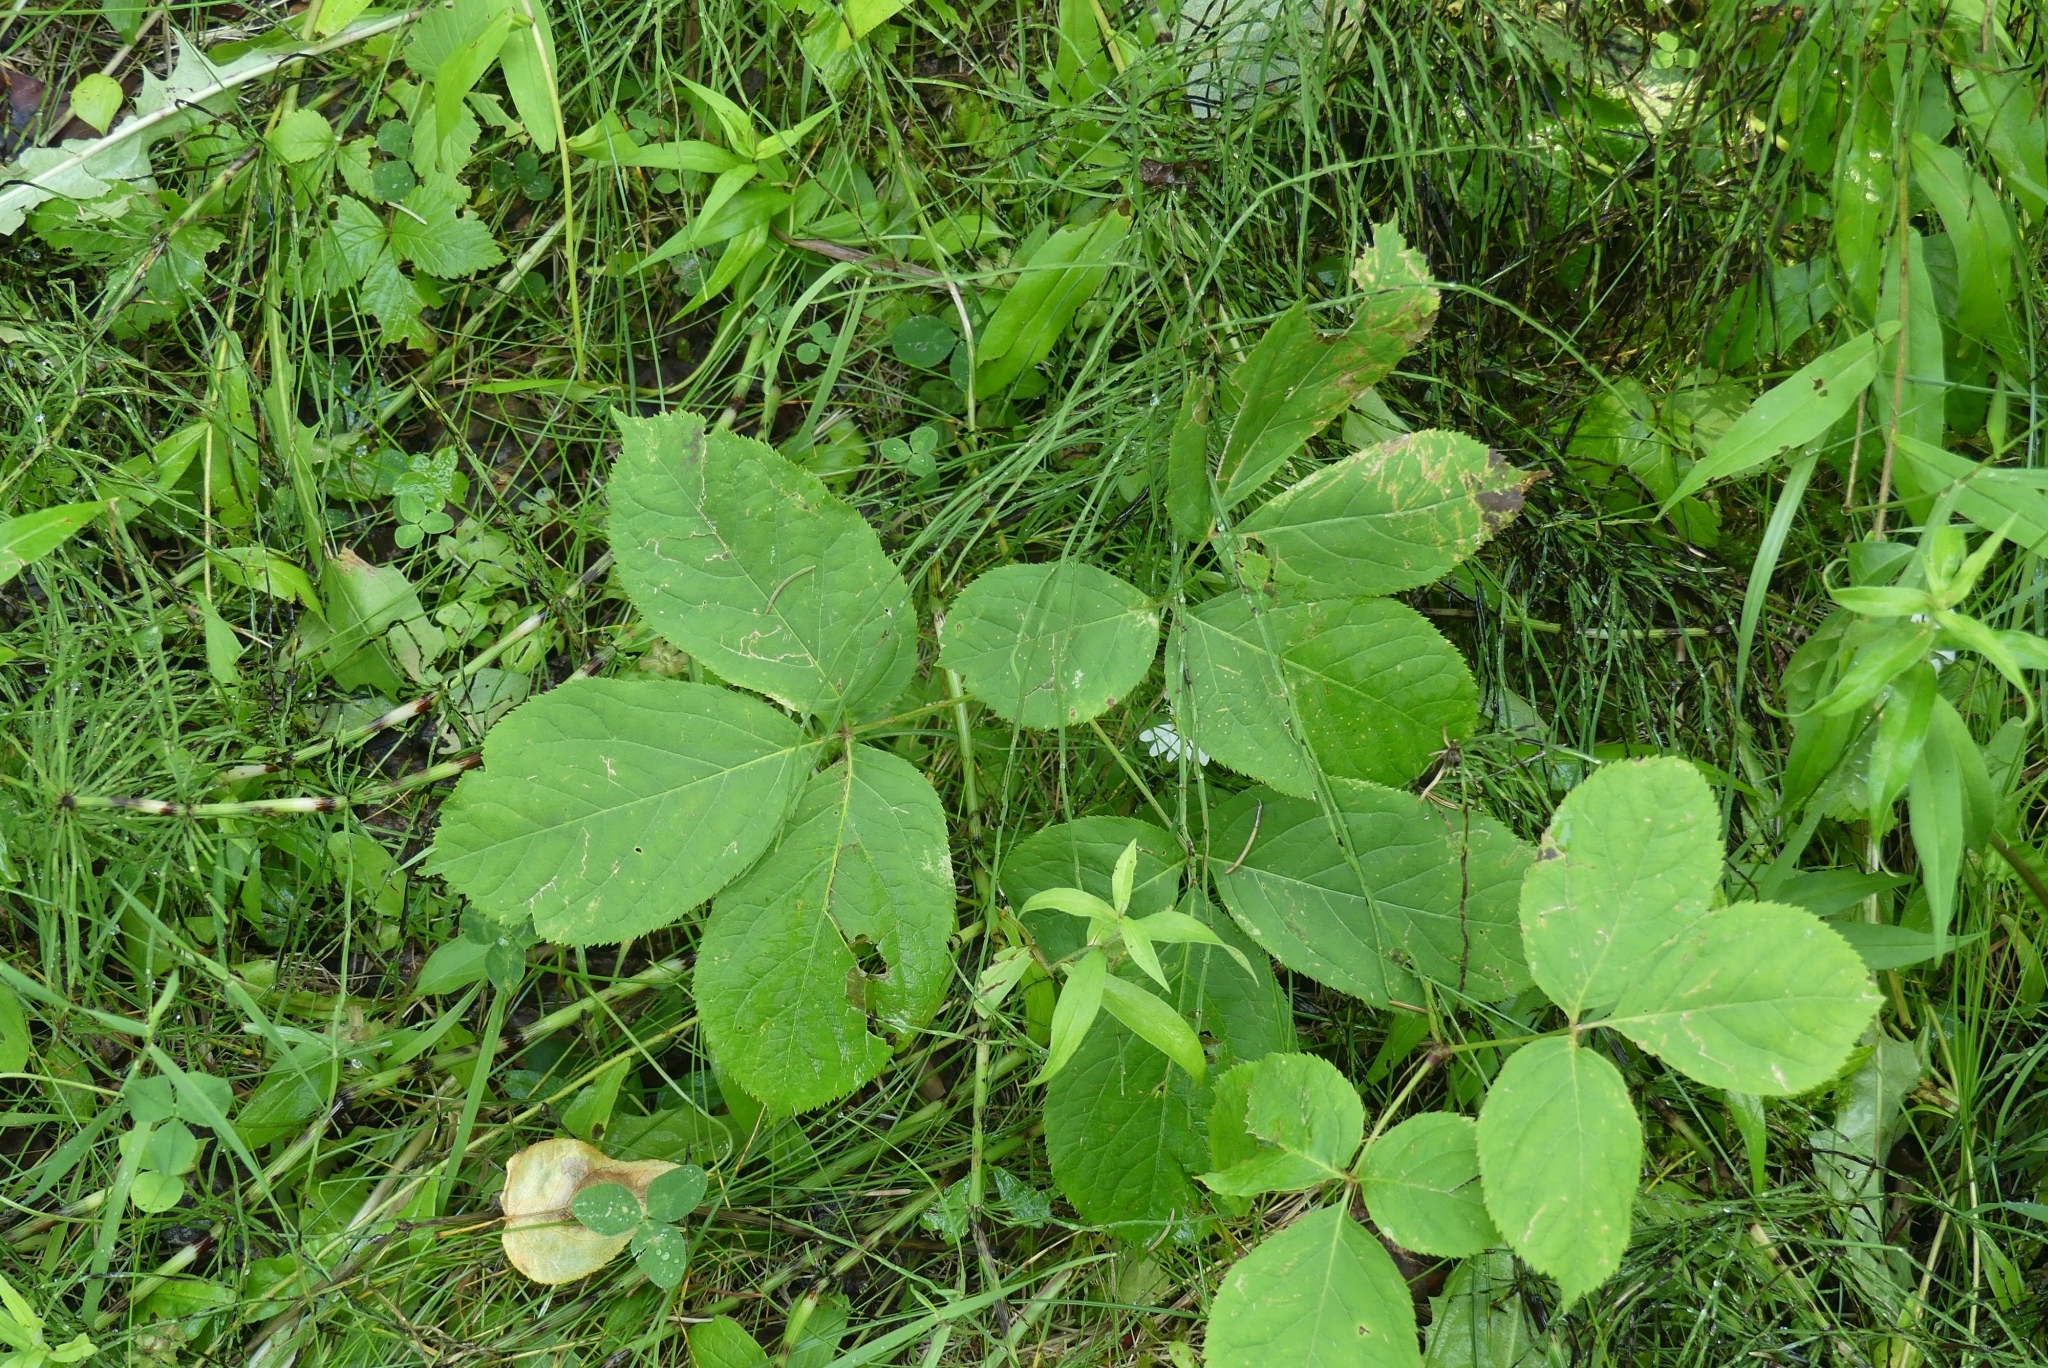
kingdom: Plantae
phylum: Tracheophyta
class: Magnoliopsida
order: Apiales
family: Araliaceae
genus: Aralia
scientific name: Aralia nudicaulis
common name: Wild sarsaparilla
